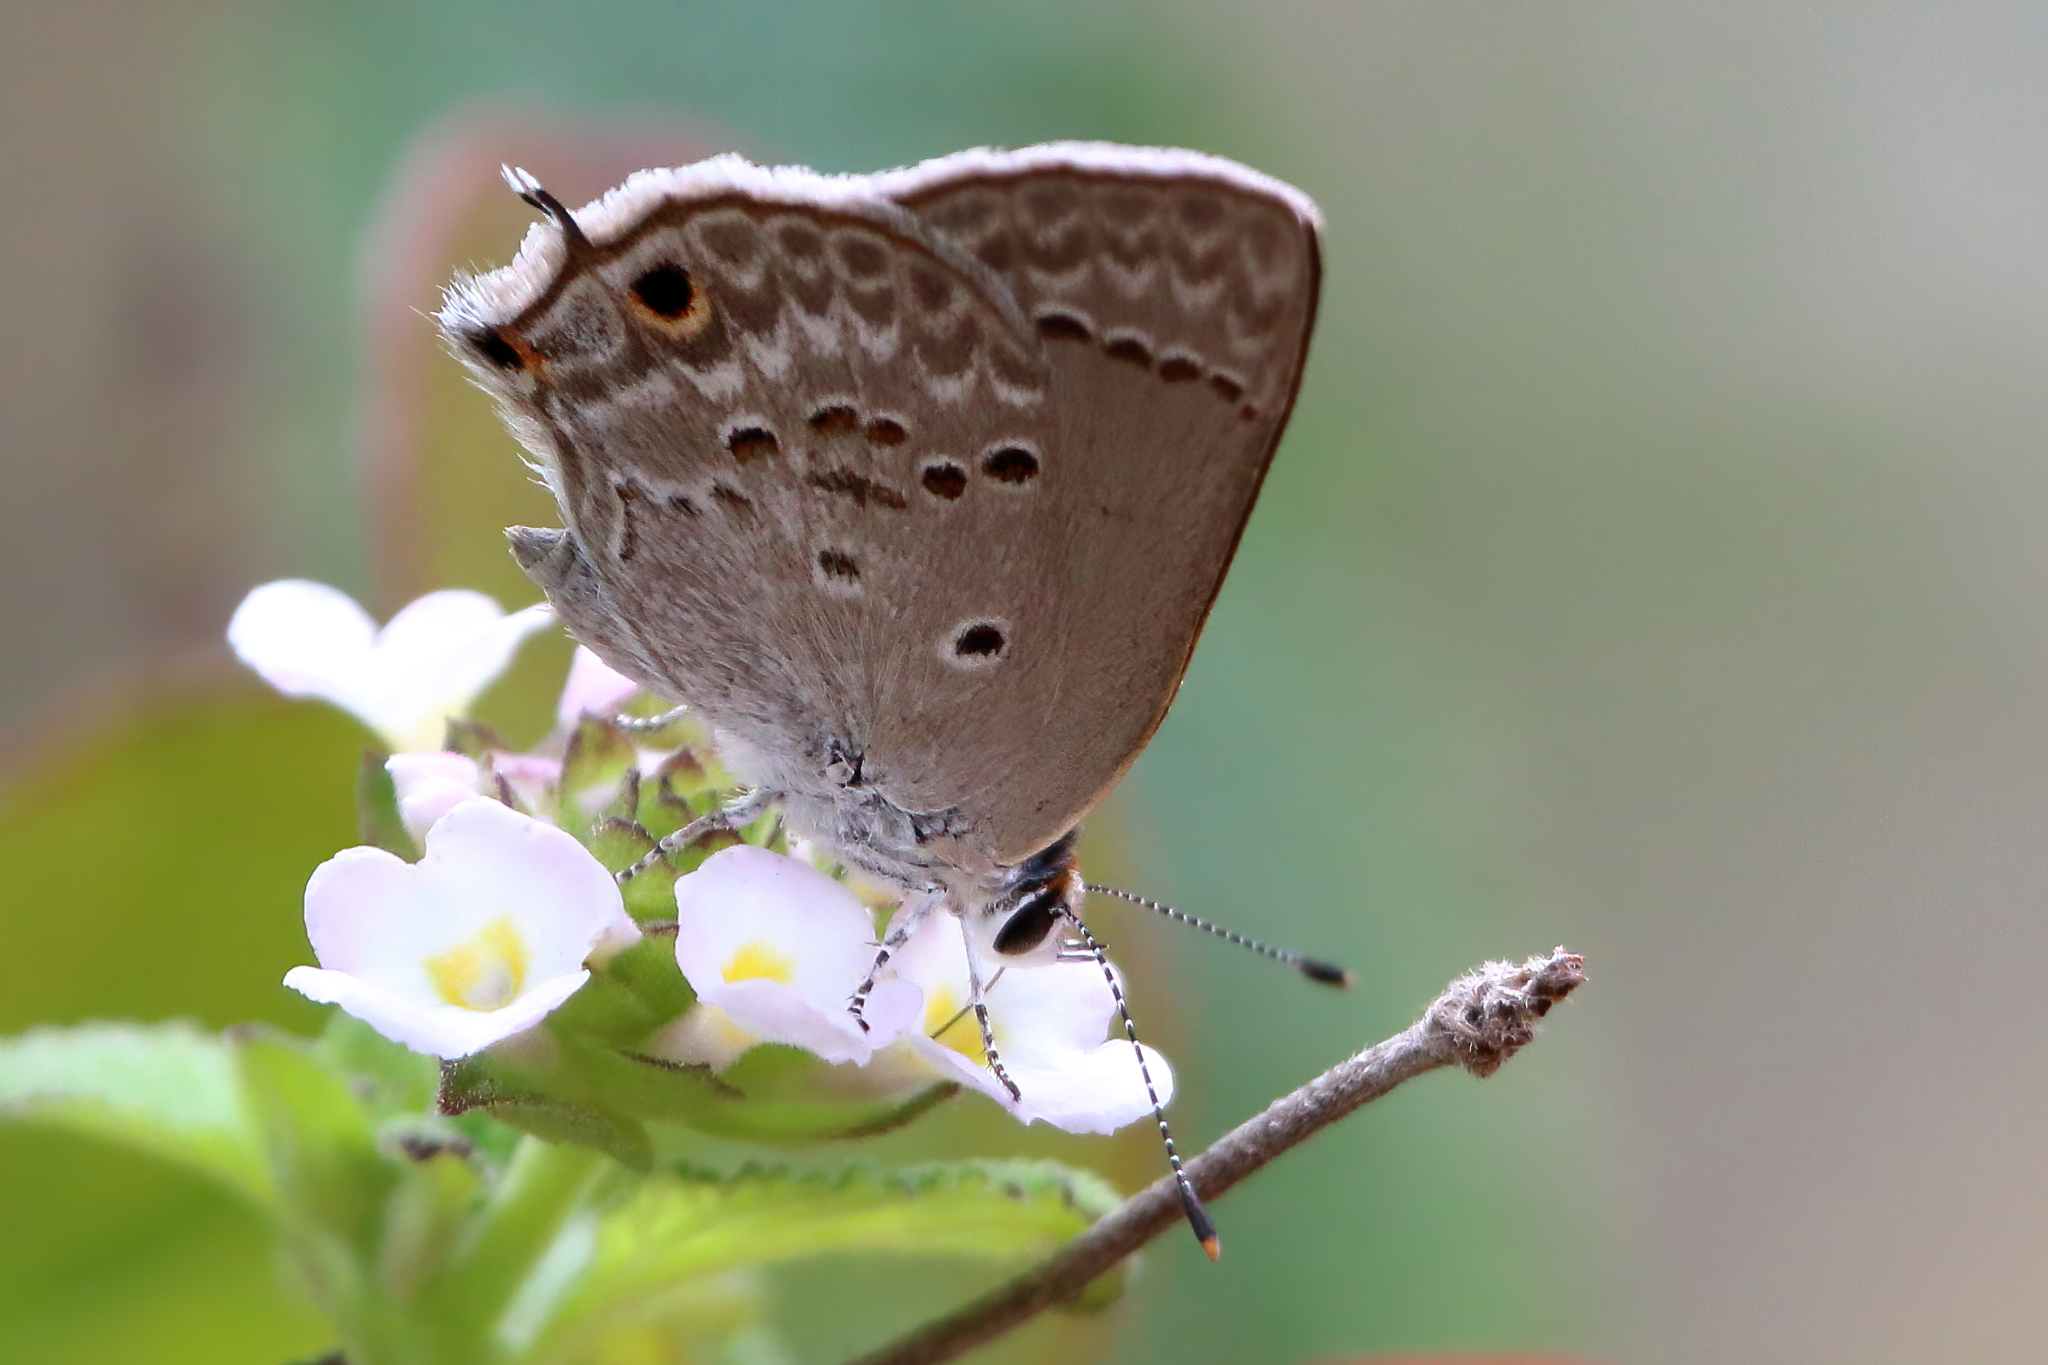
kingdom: Animalia
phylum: Arthropoda
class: Insecta
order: Lepidoptera
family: Lycaenidae
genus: Callicista
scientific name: Callicista columella
